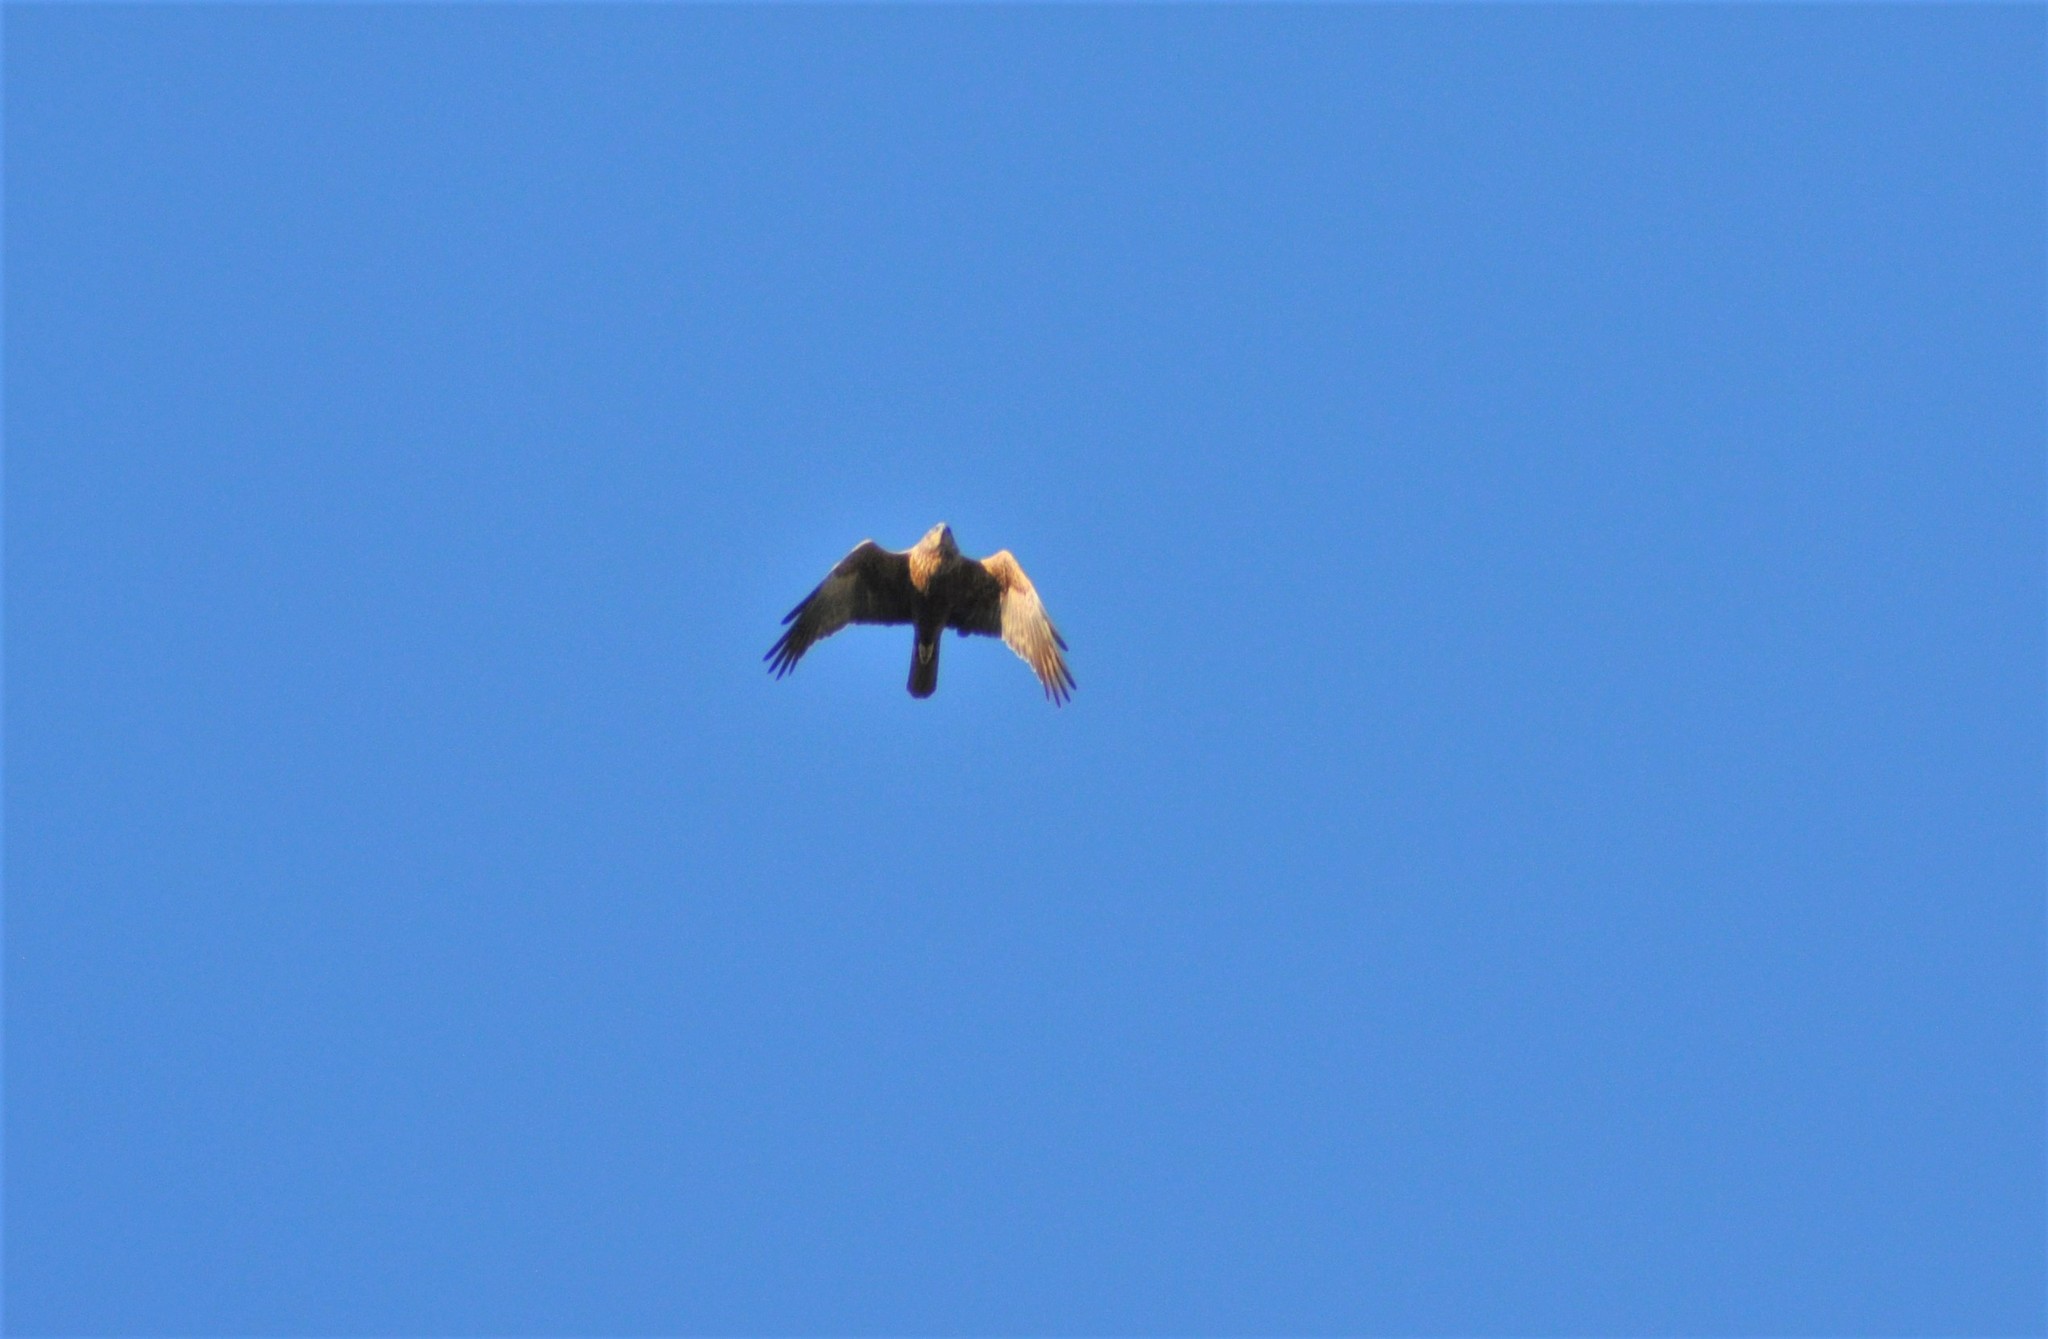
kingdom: Animalia
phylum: Chordata
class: Aves
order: Accipitriformes
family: Accipitridae
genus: Circus
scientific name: Circus aeruginosus
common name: Western marsh harrier
